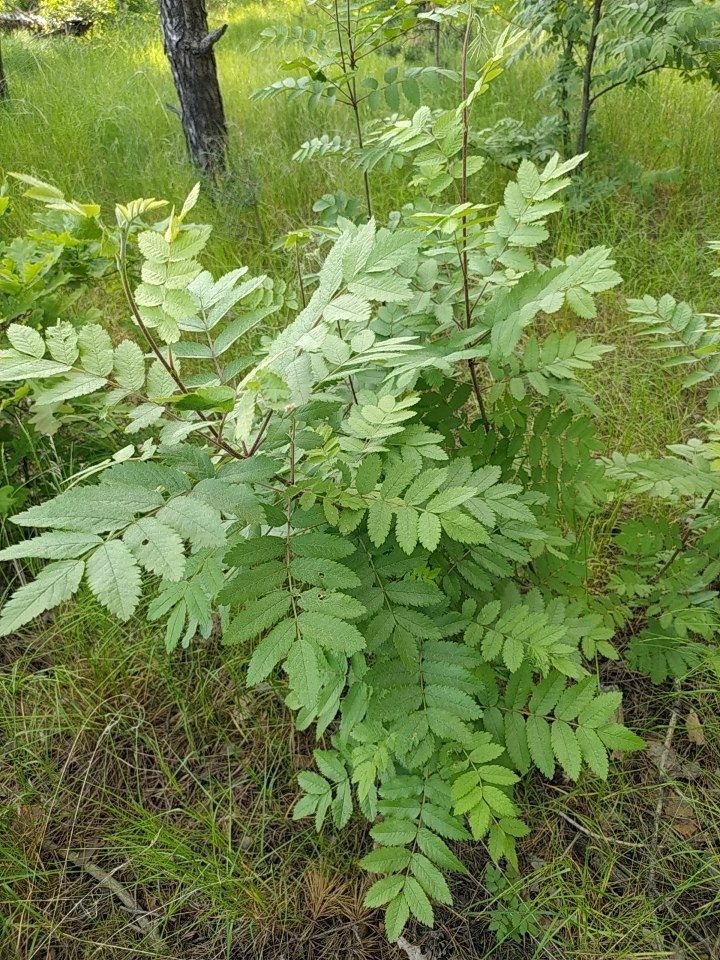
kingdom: Plantae
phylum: Tracheophyta
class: Magnoliopsida
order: Rosales
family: Rosaceae
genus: Sorbus
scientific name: Sorbus aucuparia
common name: Rowan
